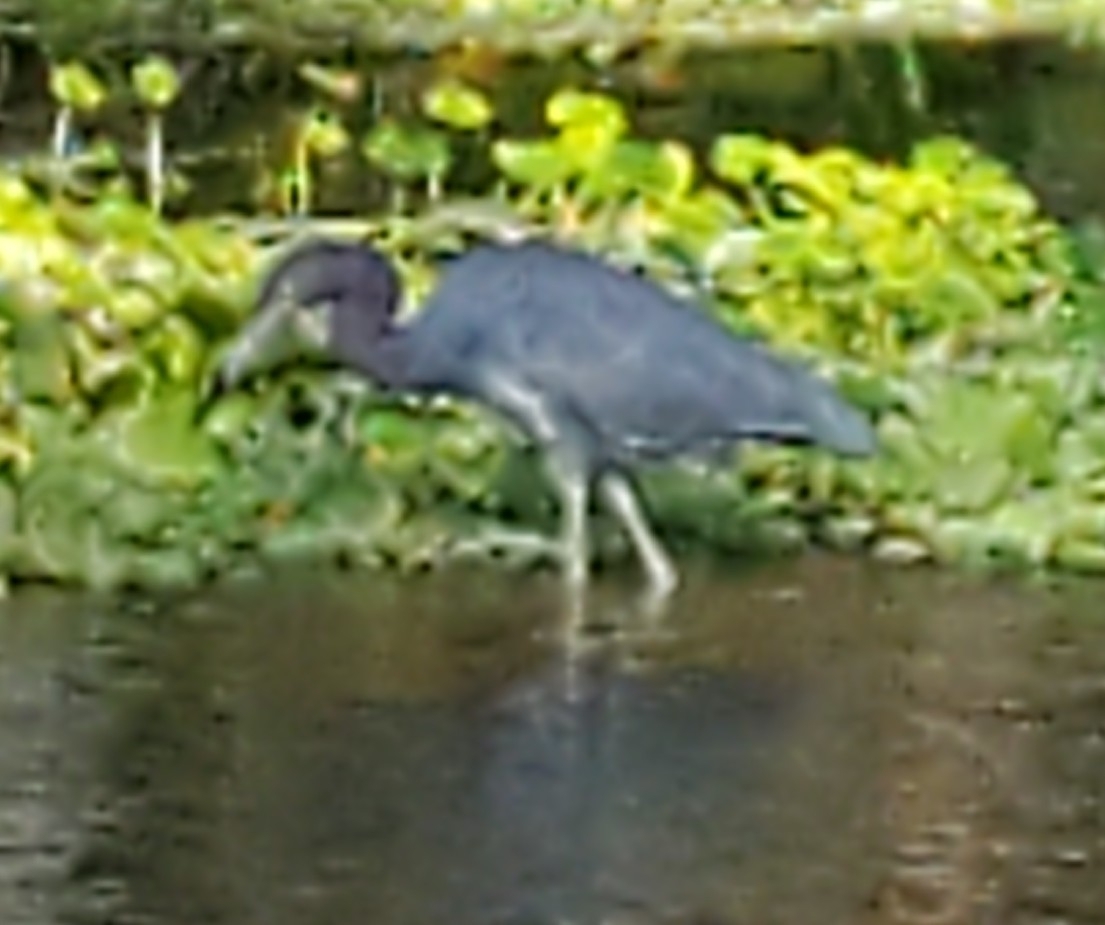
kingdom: Animalia
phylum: Chordata
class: Aves
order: Pelecaniformes
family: Ardeidae
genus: Egretta
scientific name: Egretta caerulea
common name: Little blue heron
